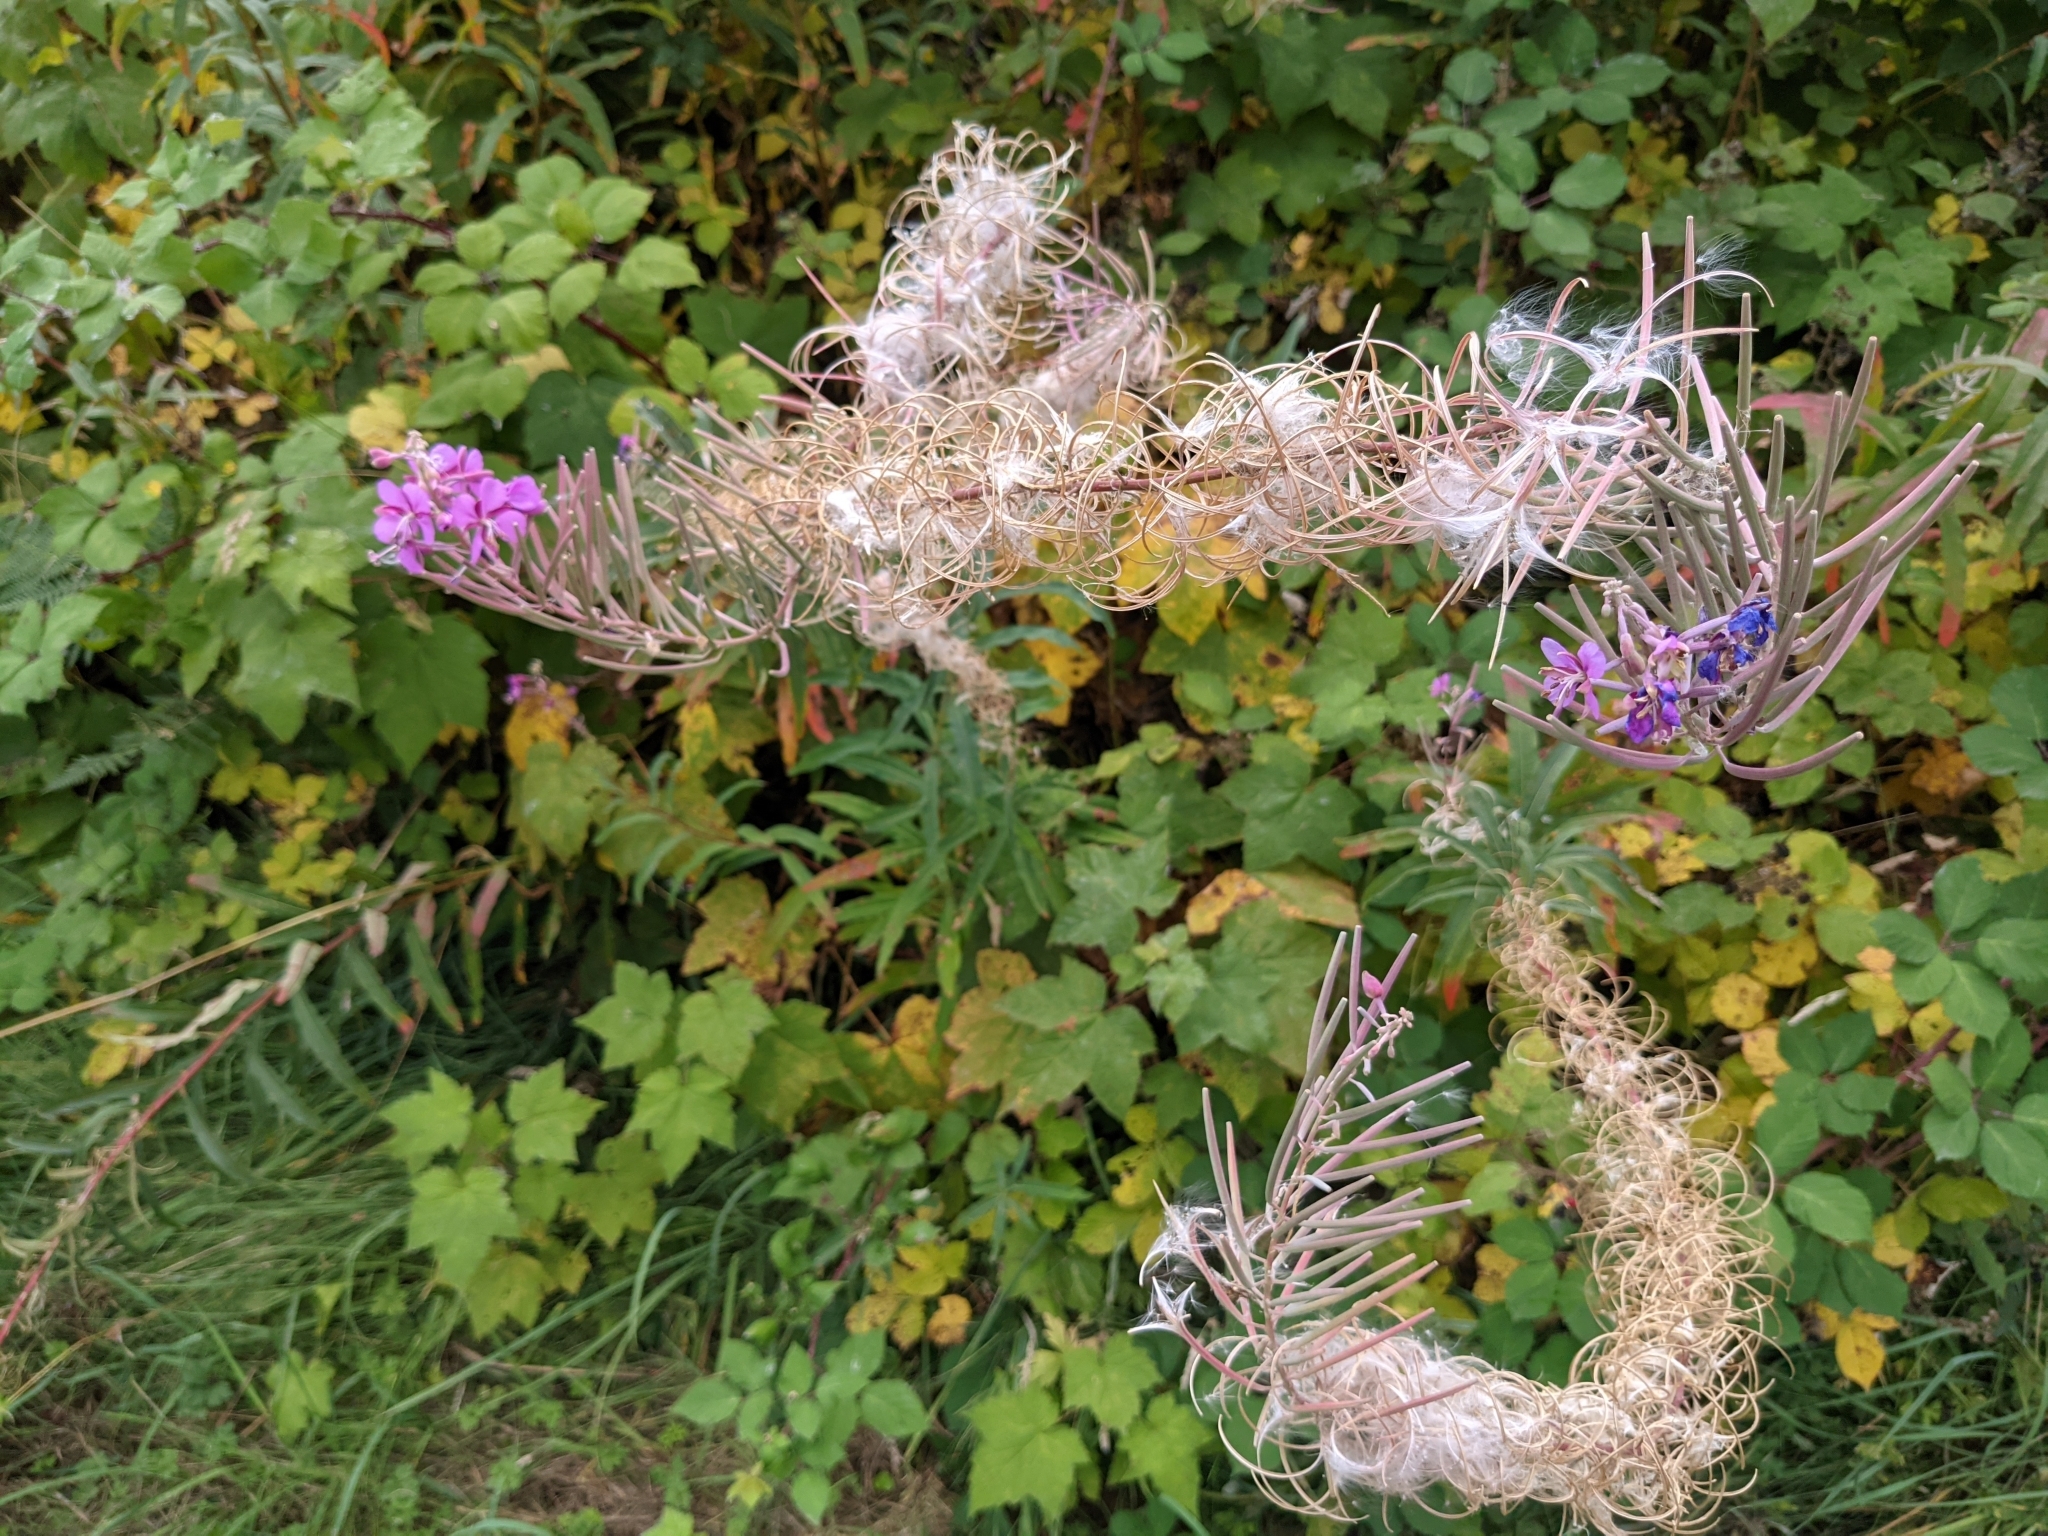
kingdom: Plantae
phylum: Tracheophyta
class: Magnoliopsida
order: Myrtales
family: Onagraceae
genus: Chamaenerion
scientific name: Chamaenerion angustifolium
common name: Fireweed
